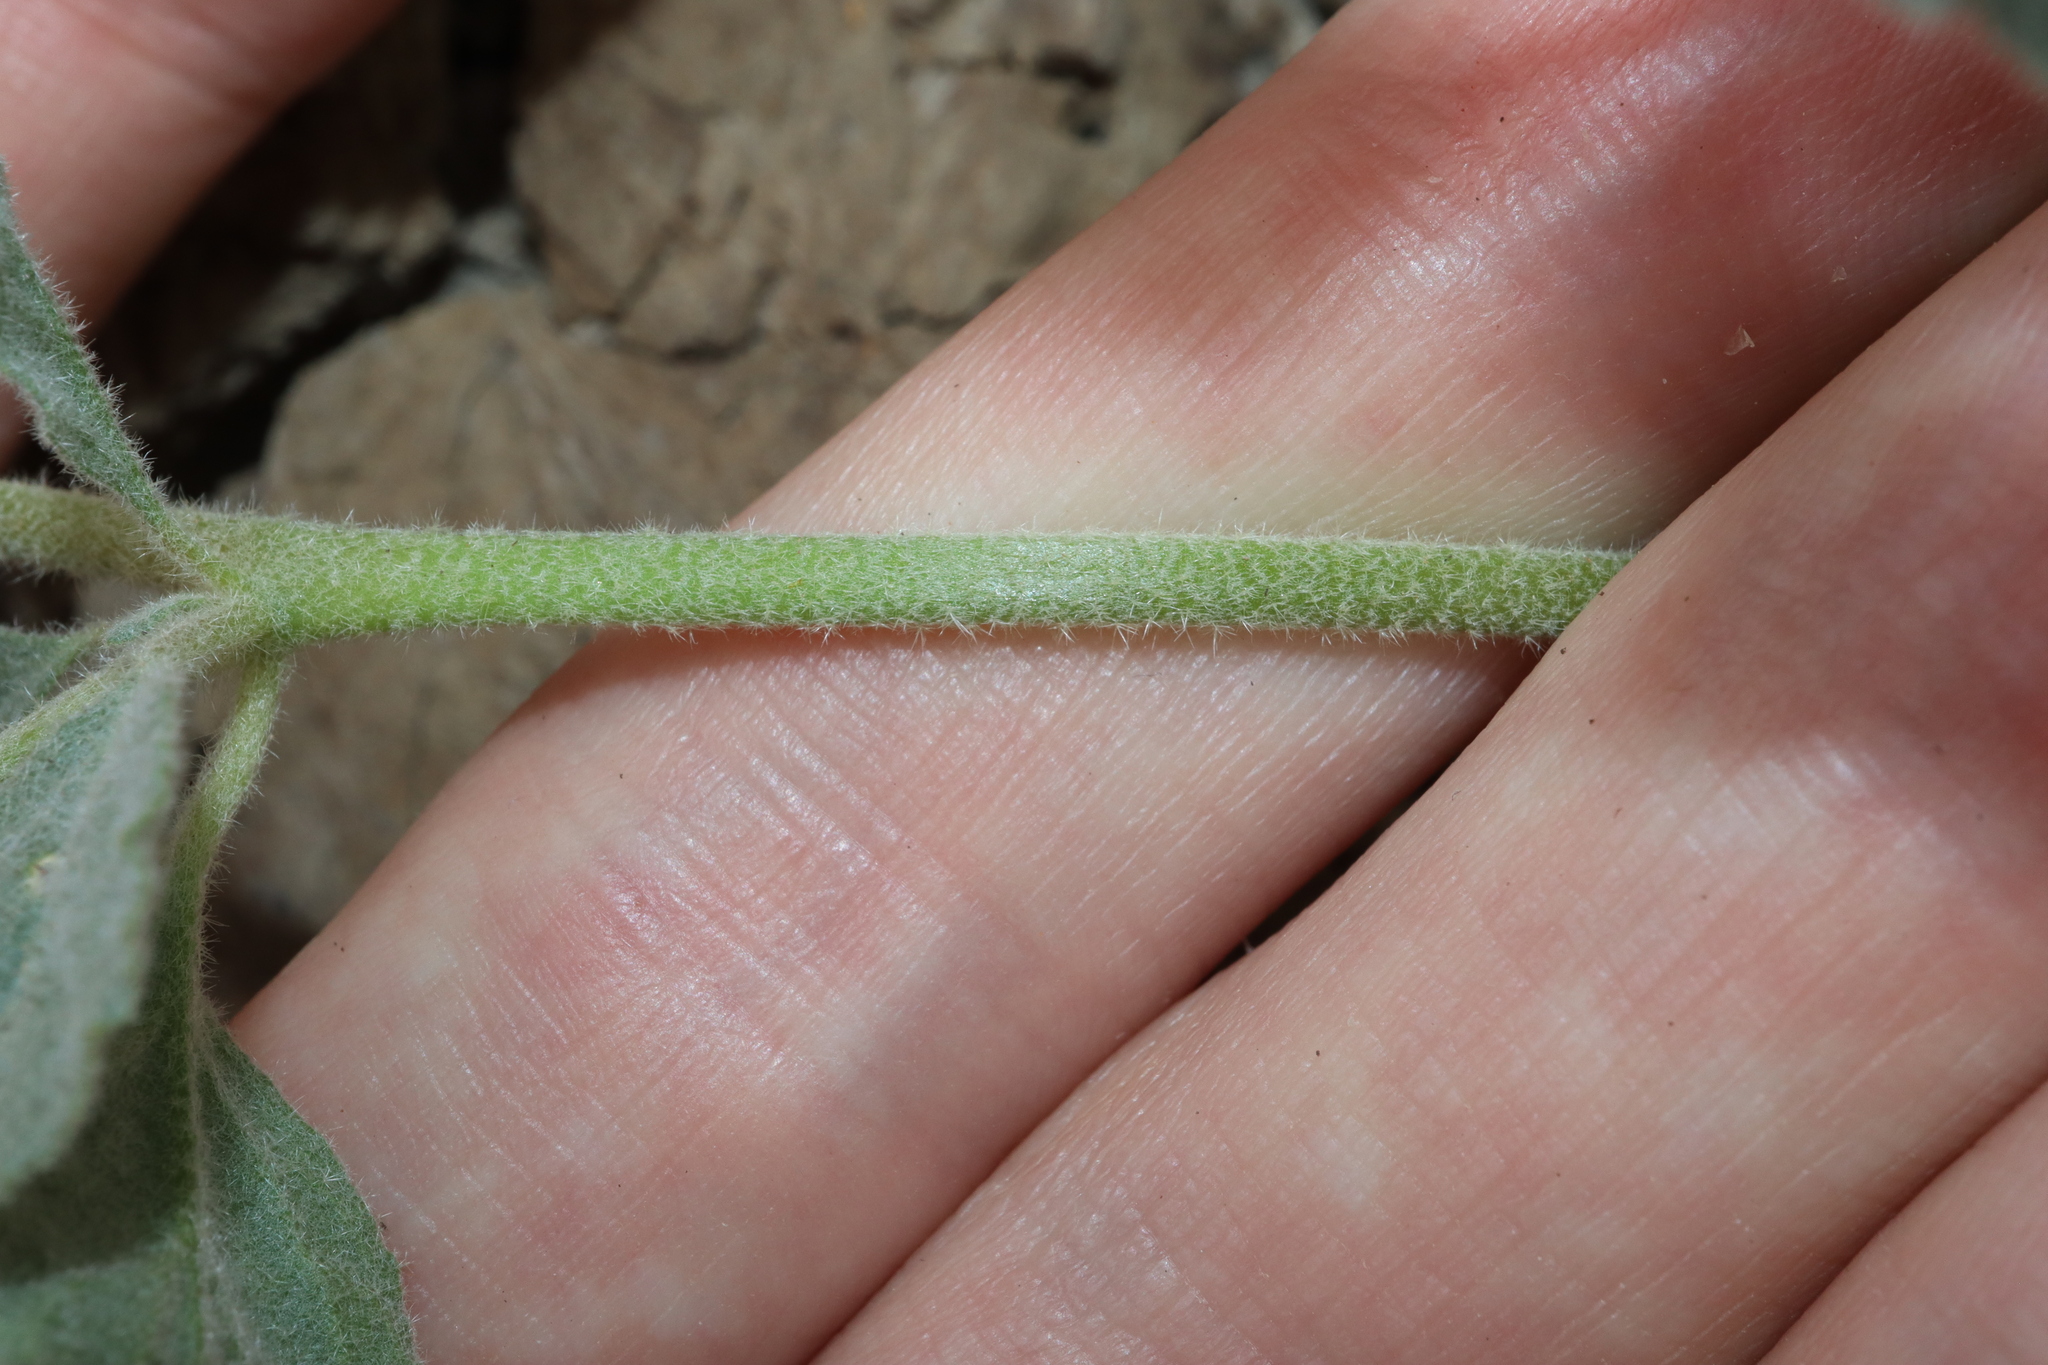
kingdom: Plantae
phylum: Tracheophyta
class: Magnoliopsida
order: Caryophyllales
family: Molluginaceae
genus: Glinus
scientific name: Glinus lotoides
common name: Lotus sweetjuice
